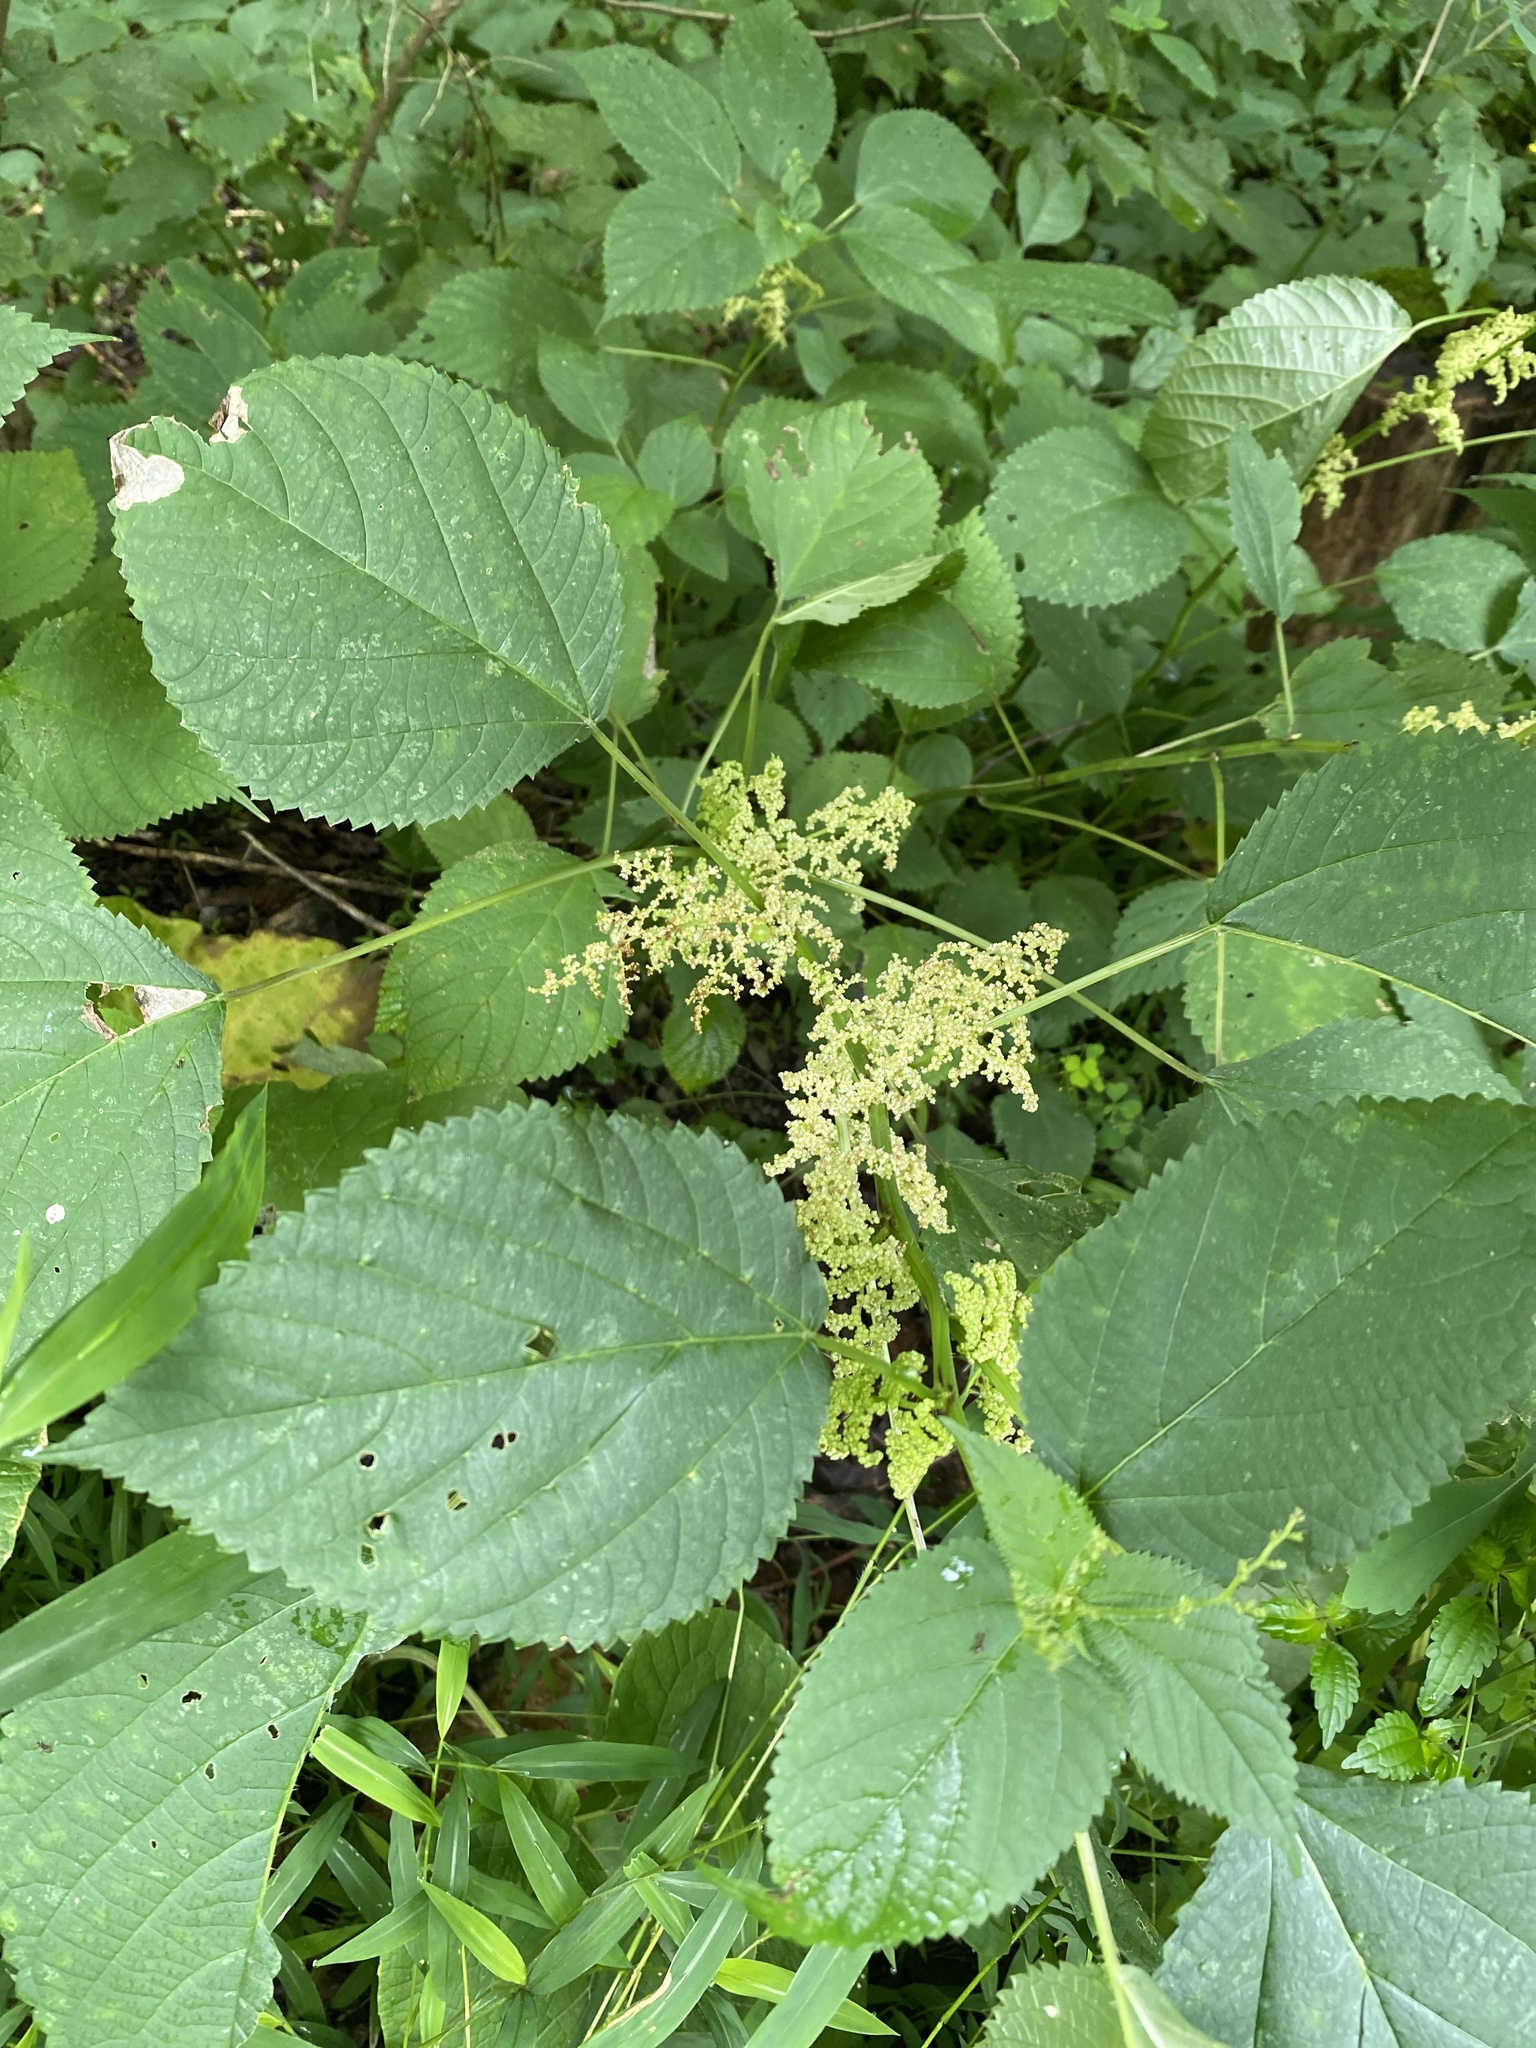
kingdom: Plantae
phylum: Tracheophyta
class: Magnoliopsida
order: Rosales
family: Urticaceae
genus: Laportea
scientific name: Laportea canadensis
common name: Canada nettle
